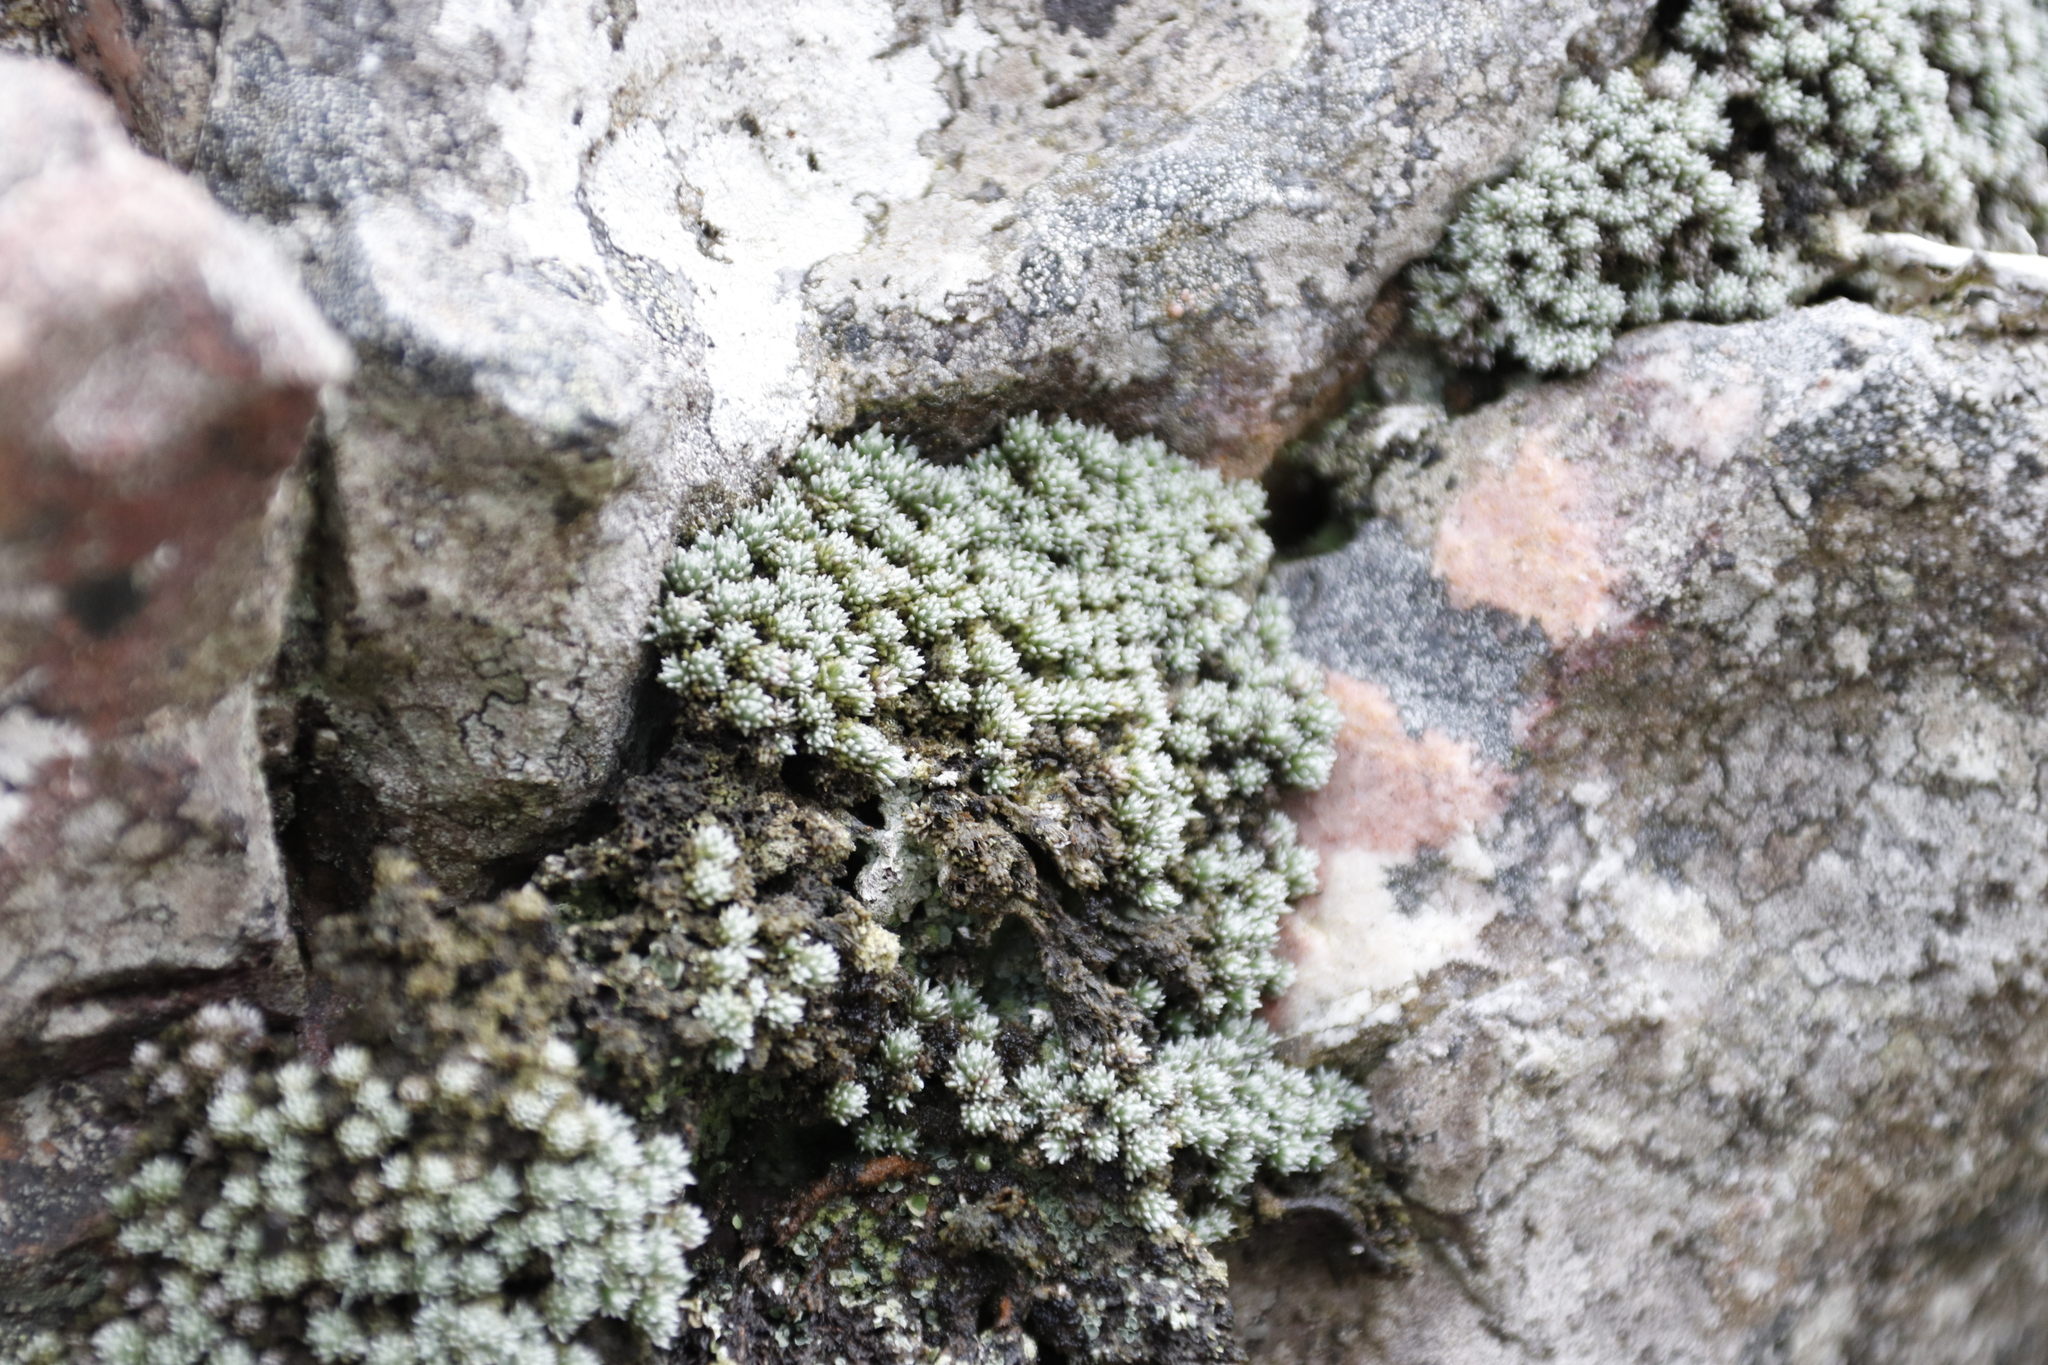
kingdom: Plantae
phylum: Tracheophyta
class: Magnoliopsida
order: Asterales
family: Asteraceae
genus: Muscosomorphe
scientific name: Muscosomorphe aretioides
